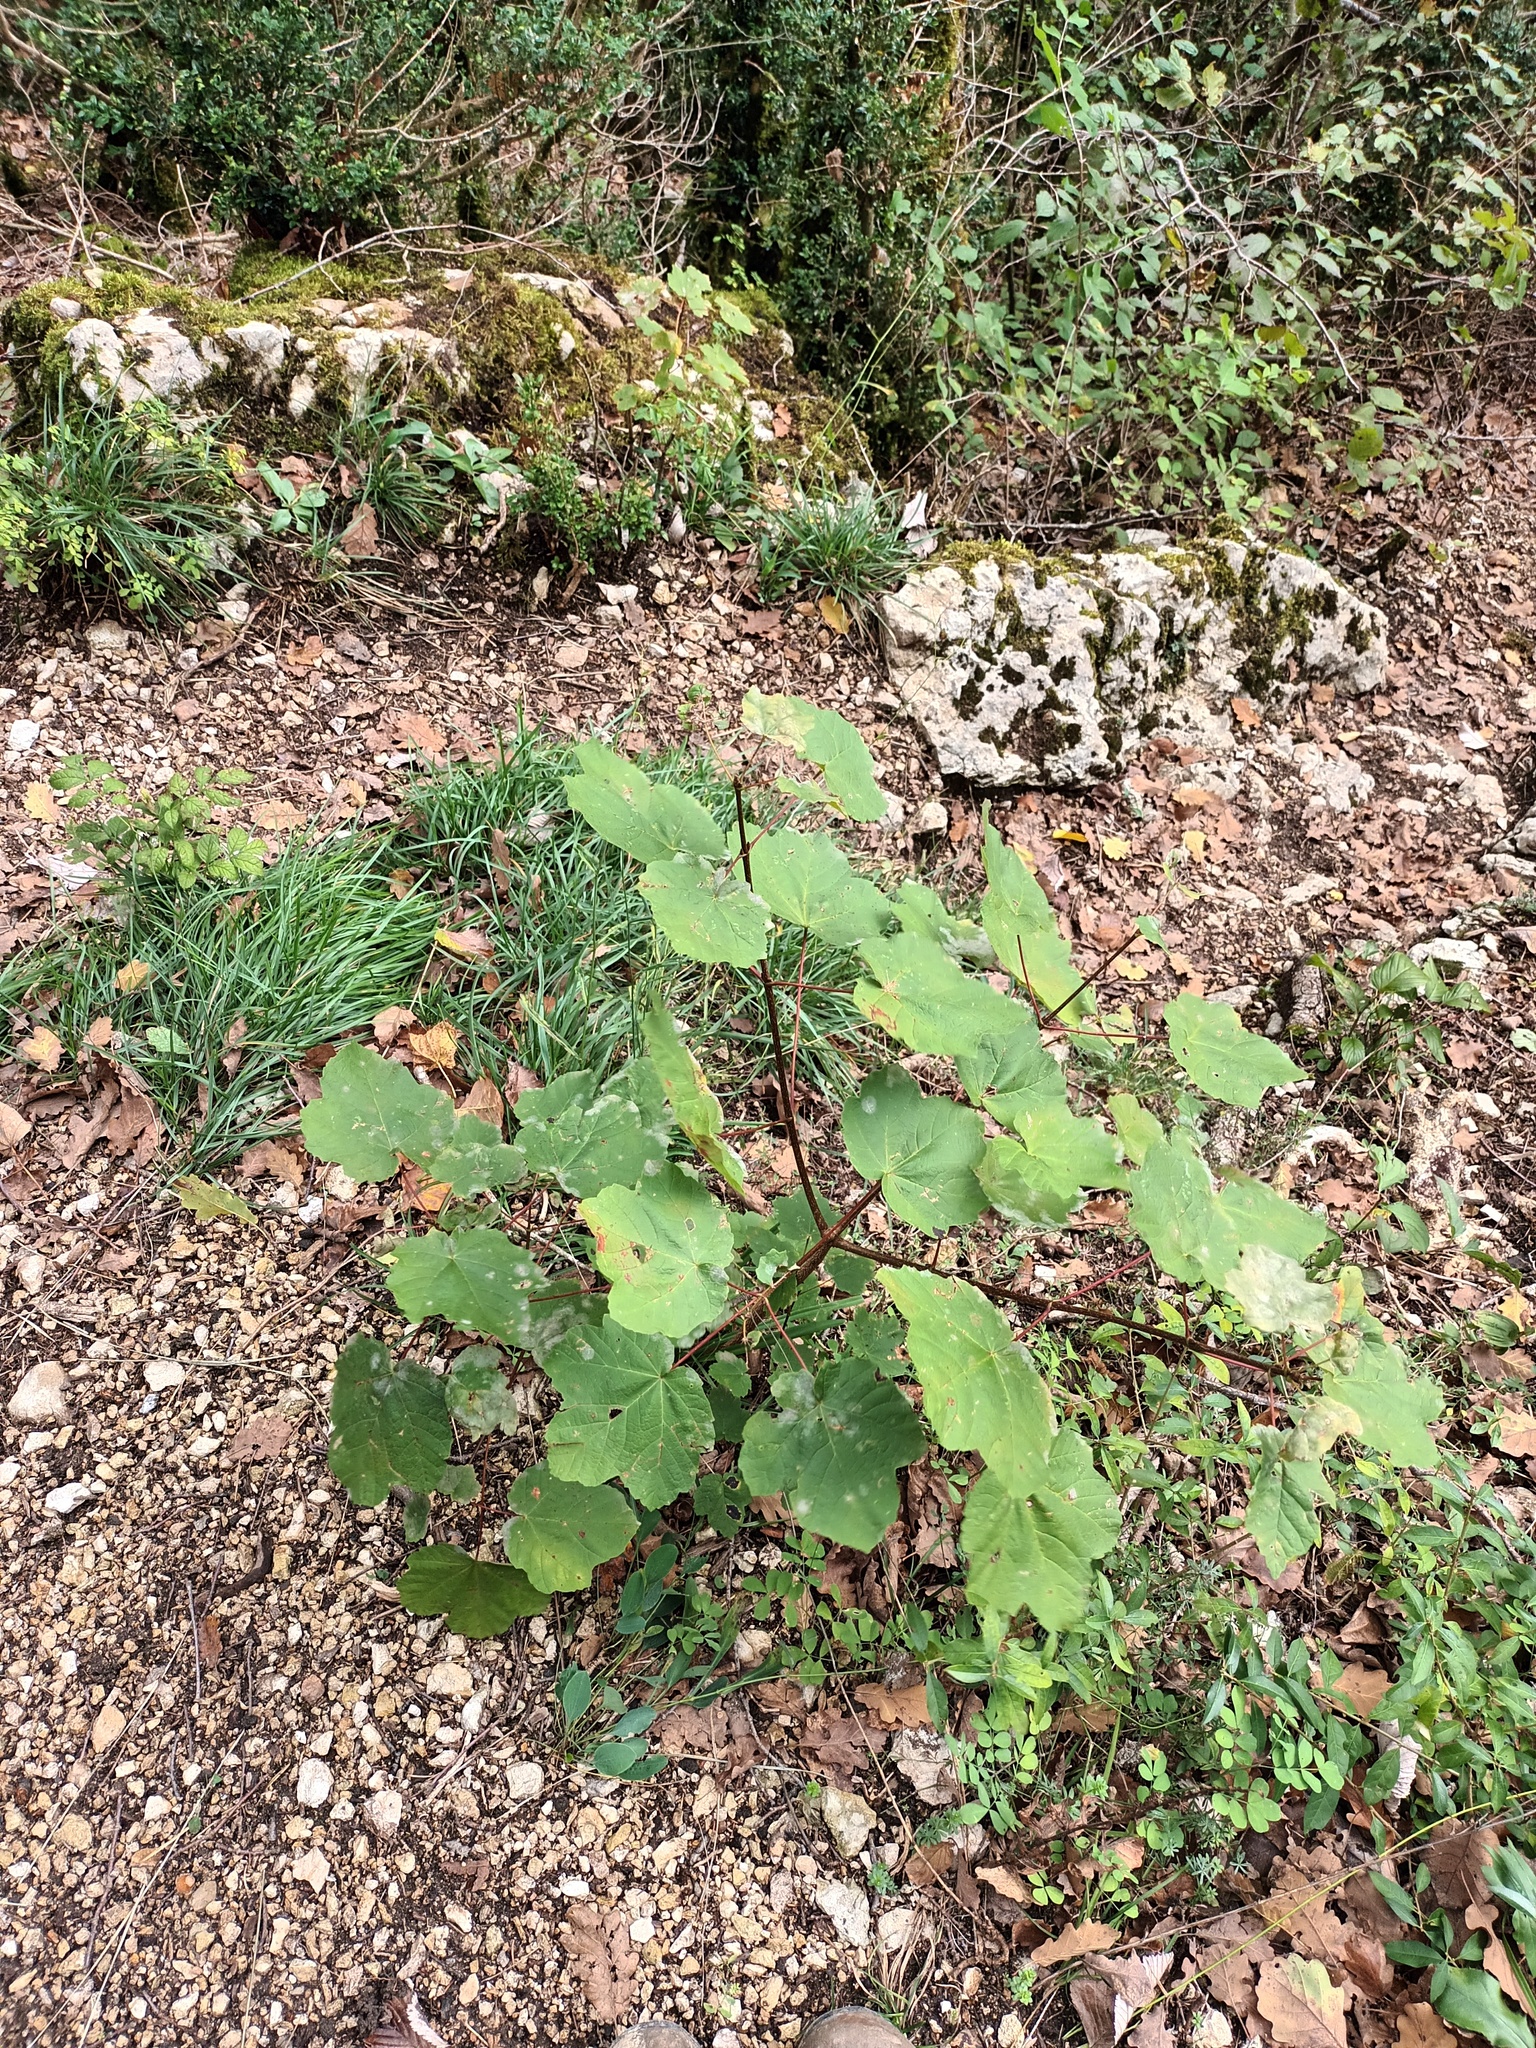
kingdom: Plantae
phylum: Tracheophyta
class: Magnoliopsida
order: Sapindales
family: Sapindaceae
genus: Acer
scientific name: Acer opalus
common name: Italian maple
